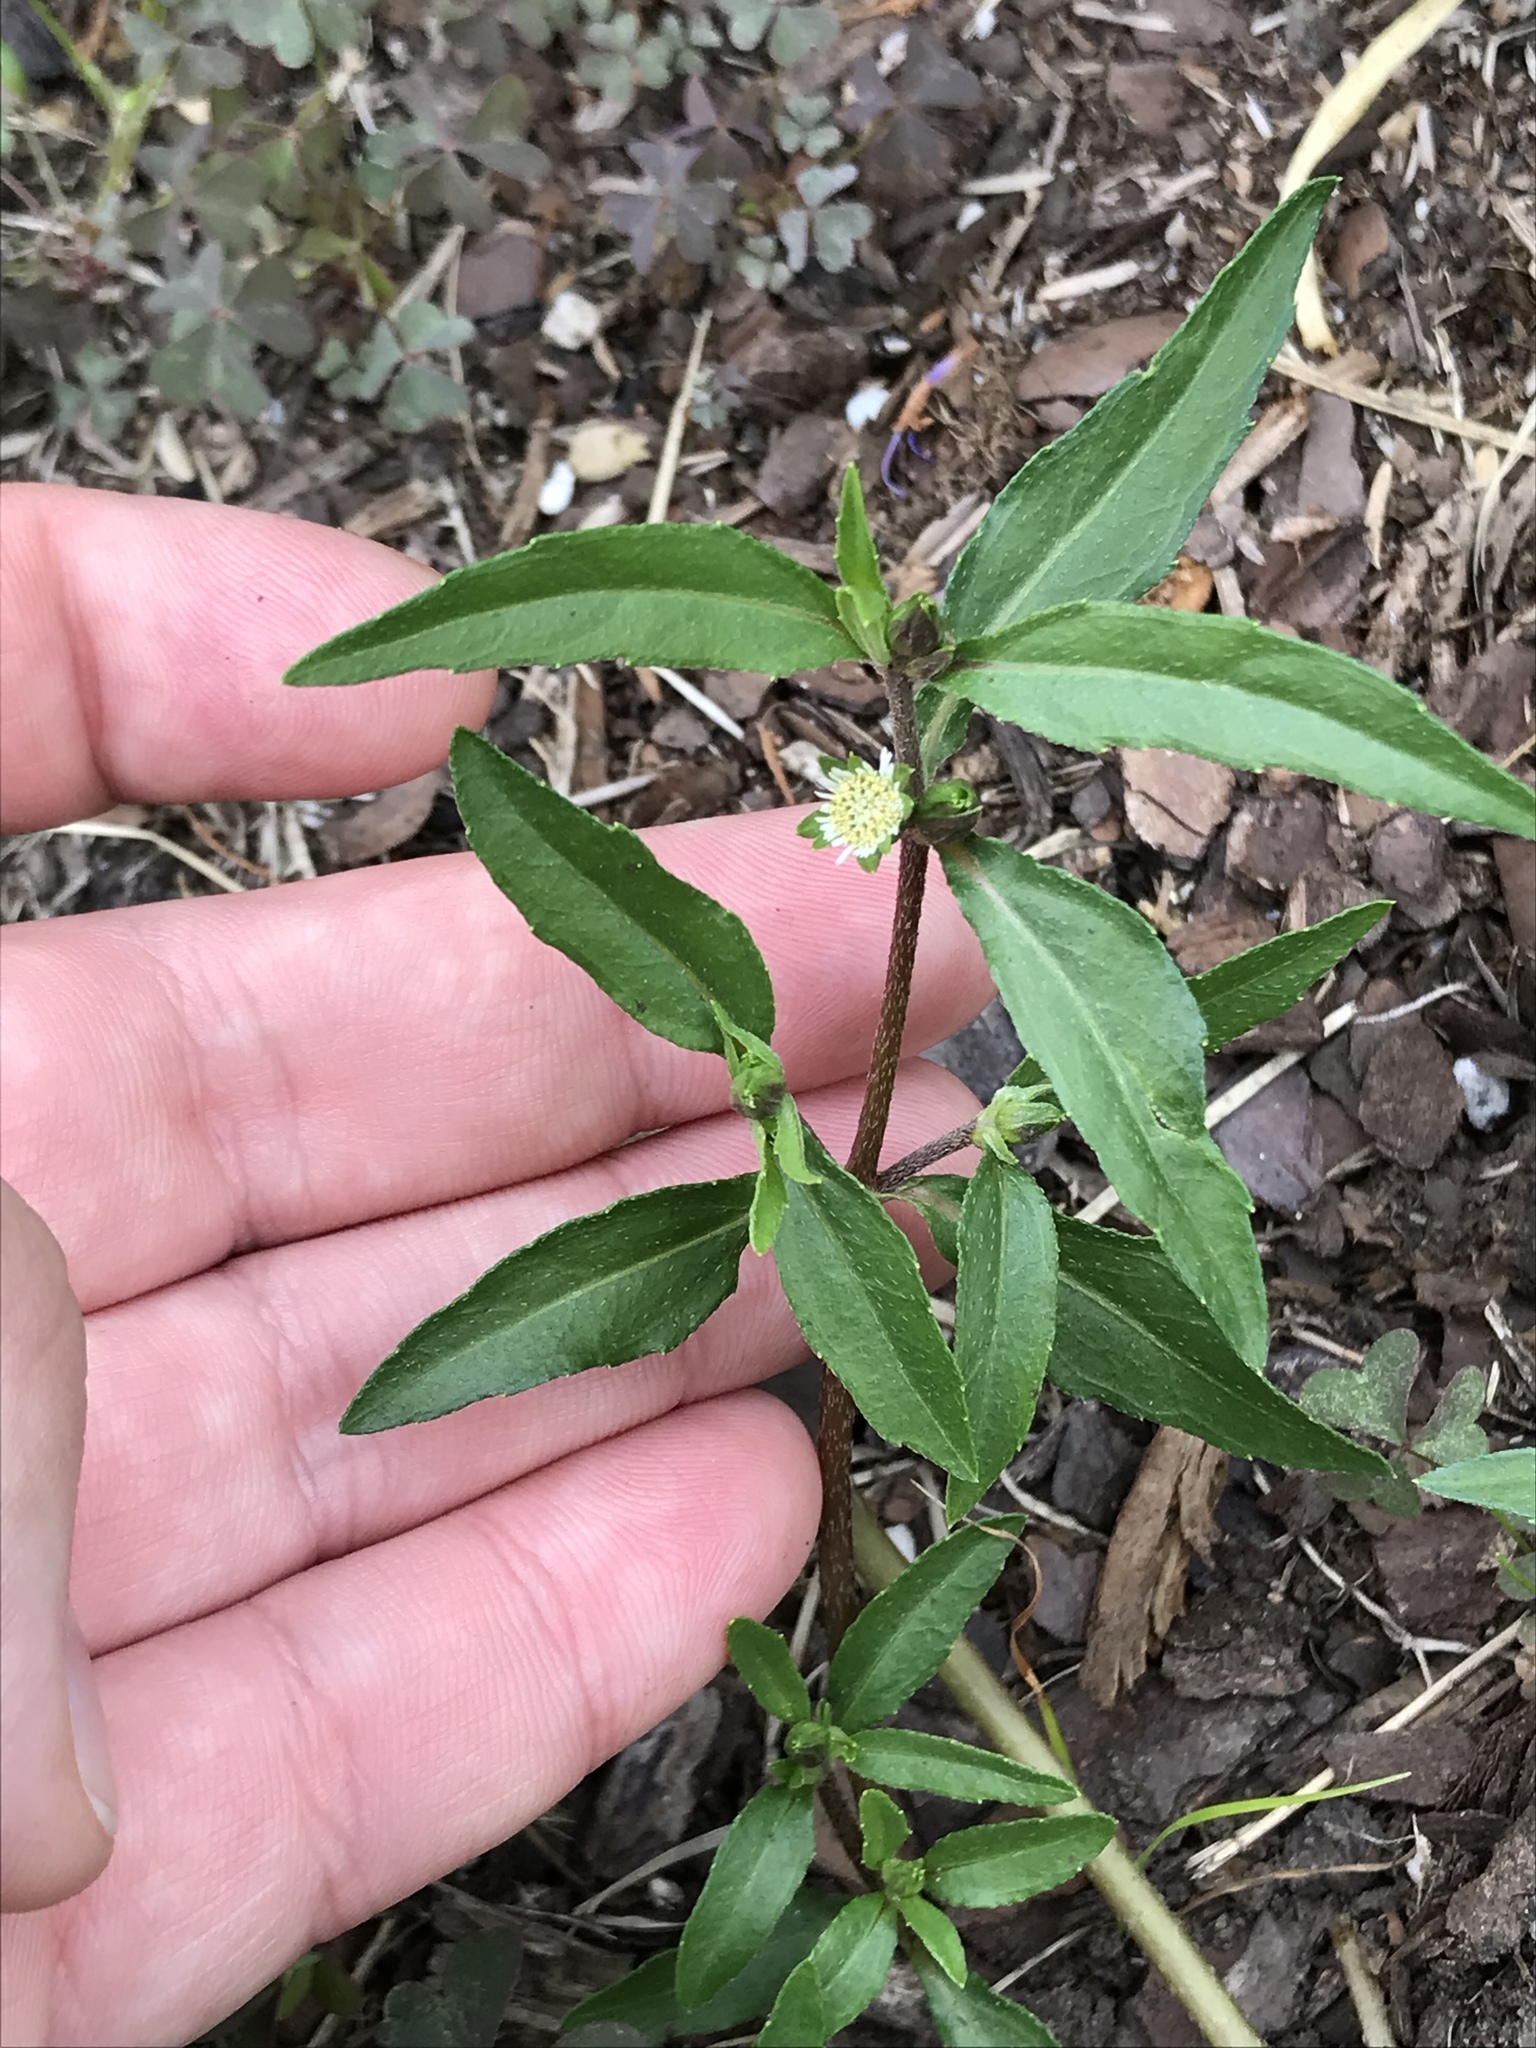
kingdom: Plantae
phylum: Tracheophyta
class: Magnoliopsida
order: Asterales
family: Asteraceae
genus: Eclipta
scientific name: Eclipta prostrata
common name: False daisy
